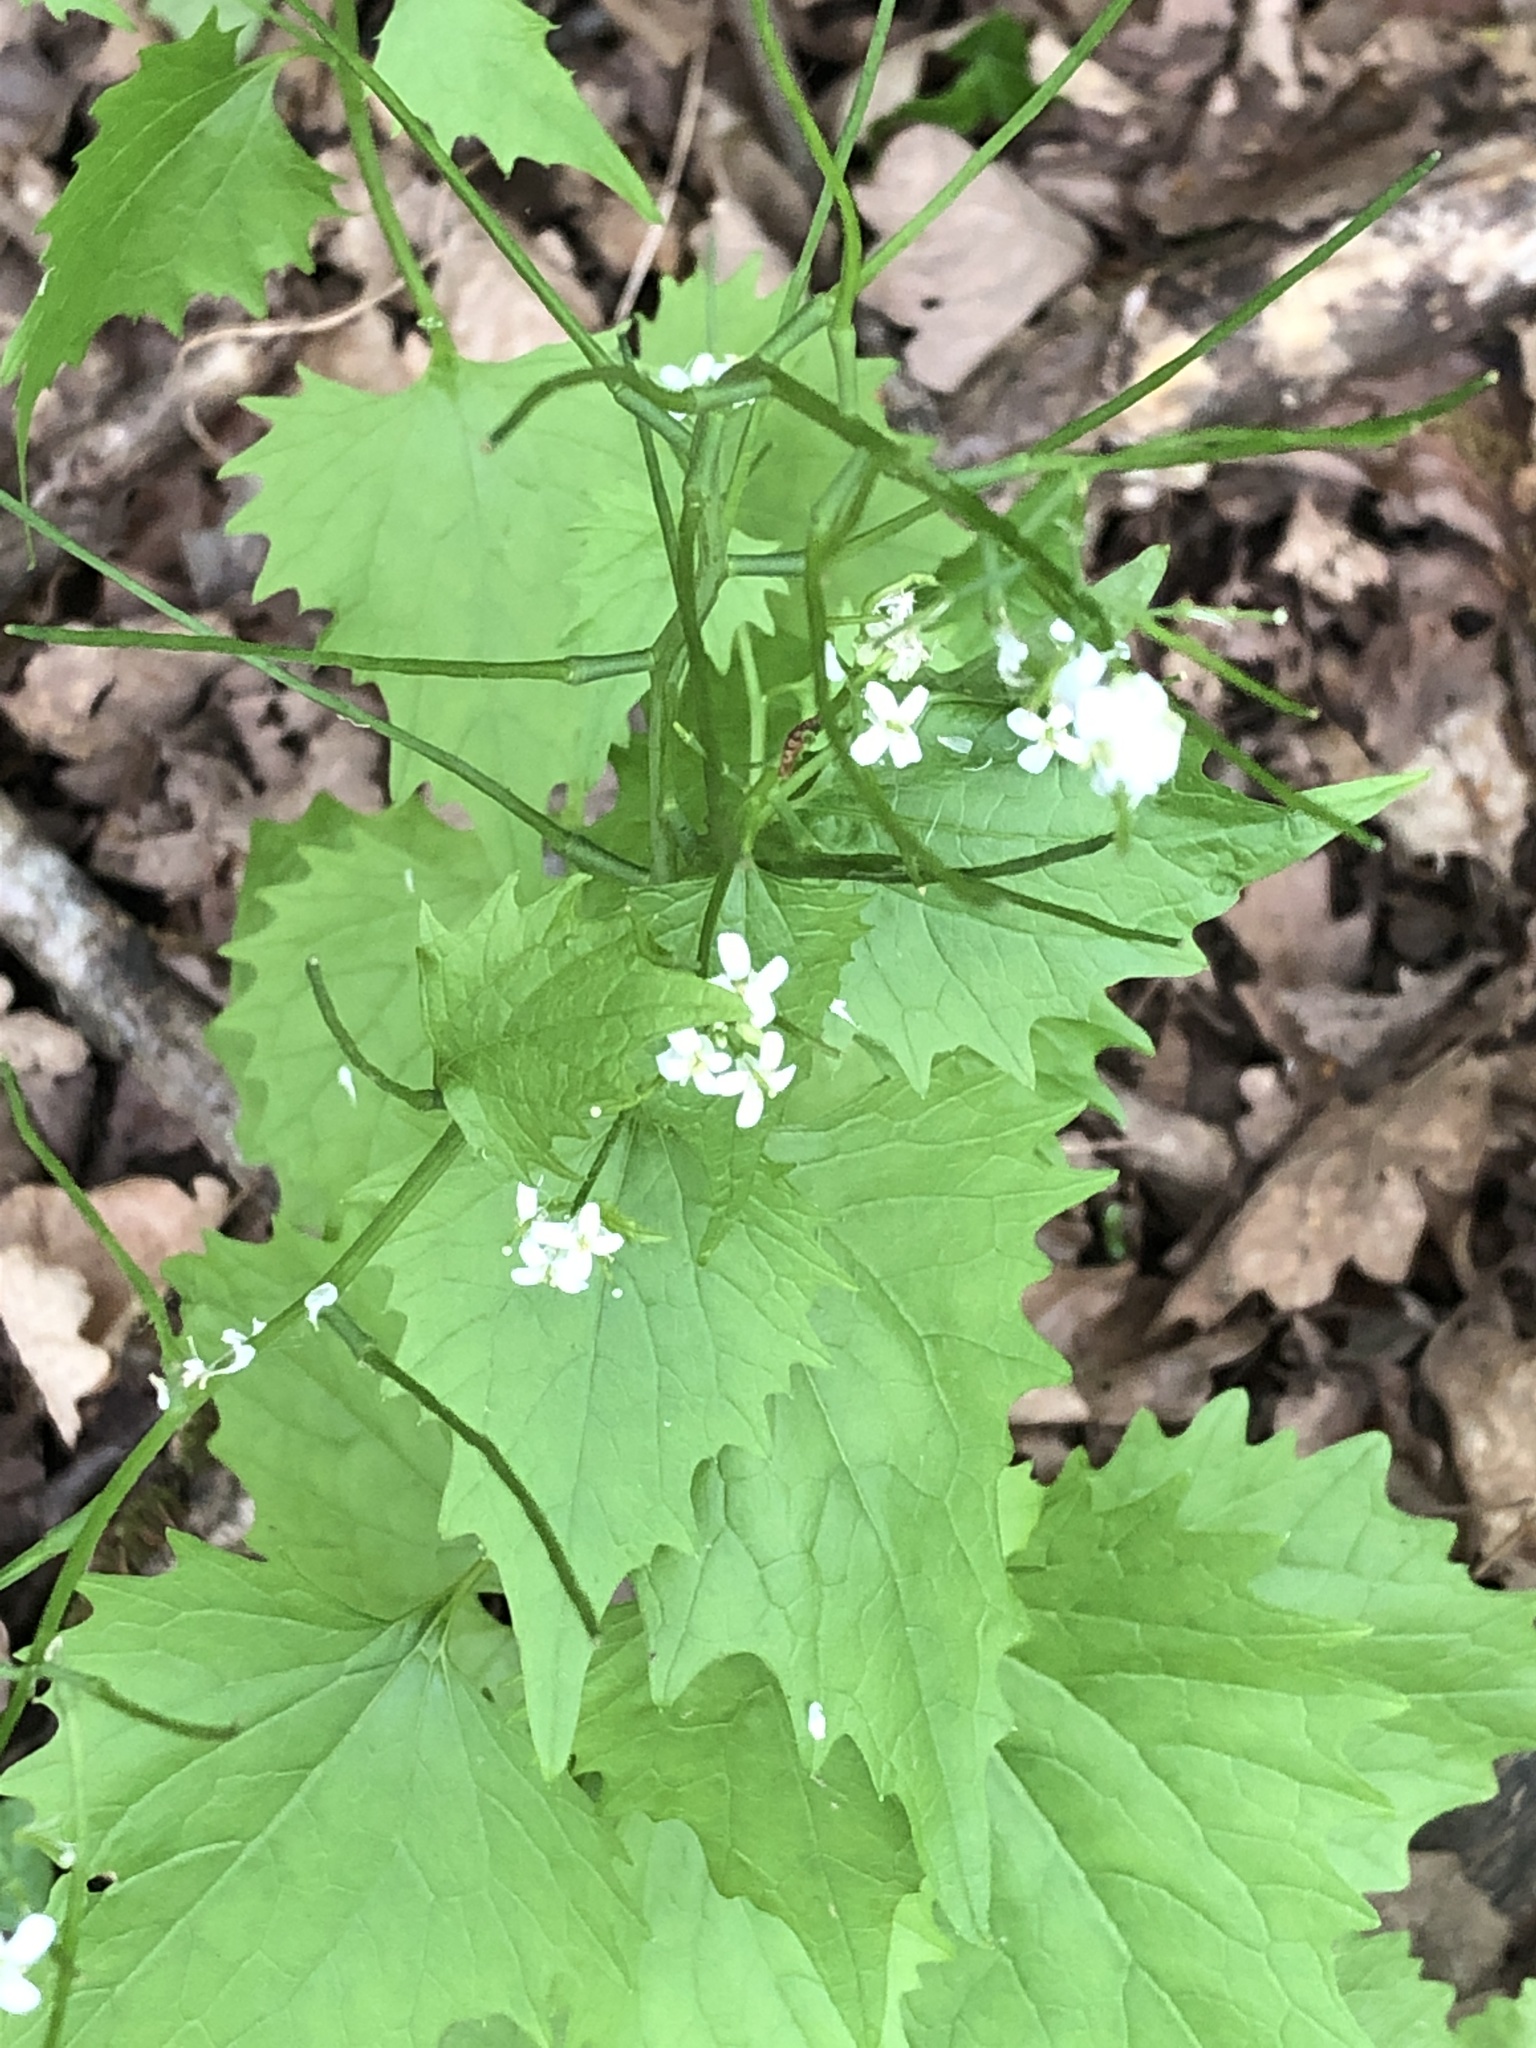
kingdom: Plantae
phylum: Tracheophyta
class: Magnoliopsida
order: Brassicales
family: Brassicaceae
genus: Alliaria
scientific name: Alliaria petiolata
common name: Garlic mustard
